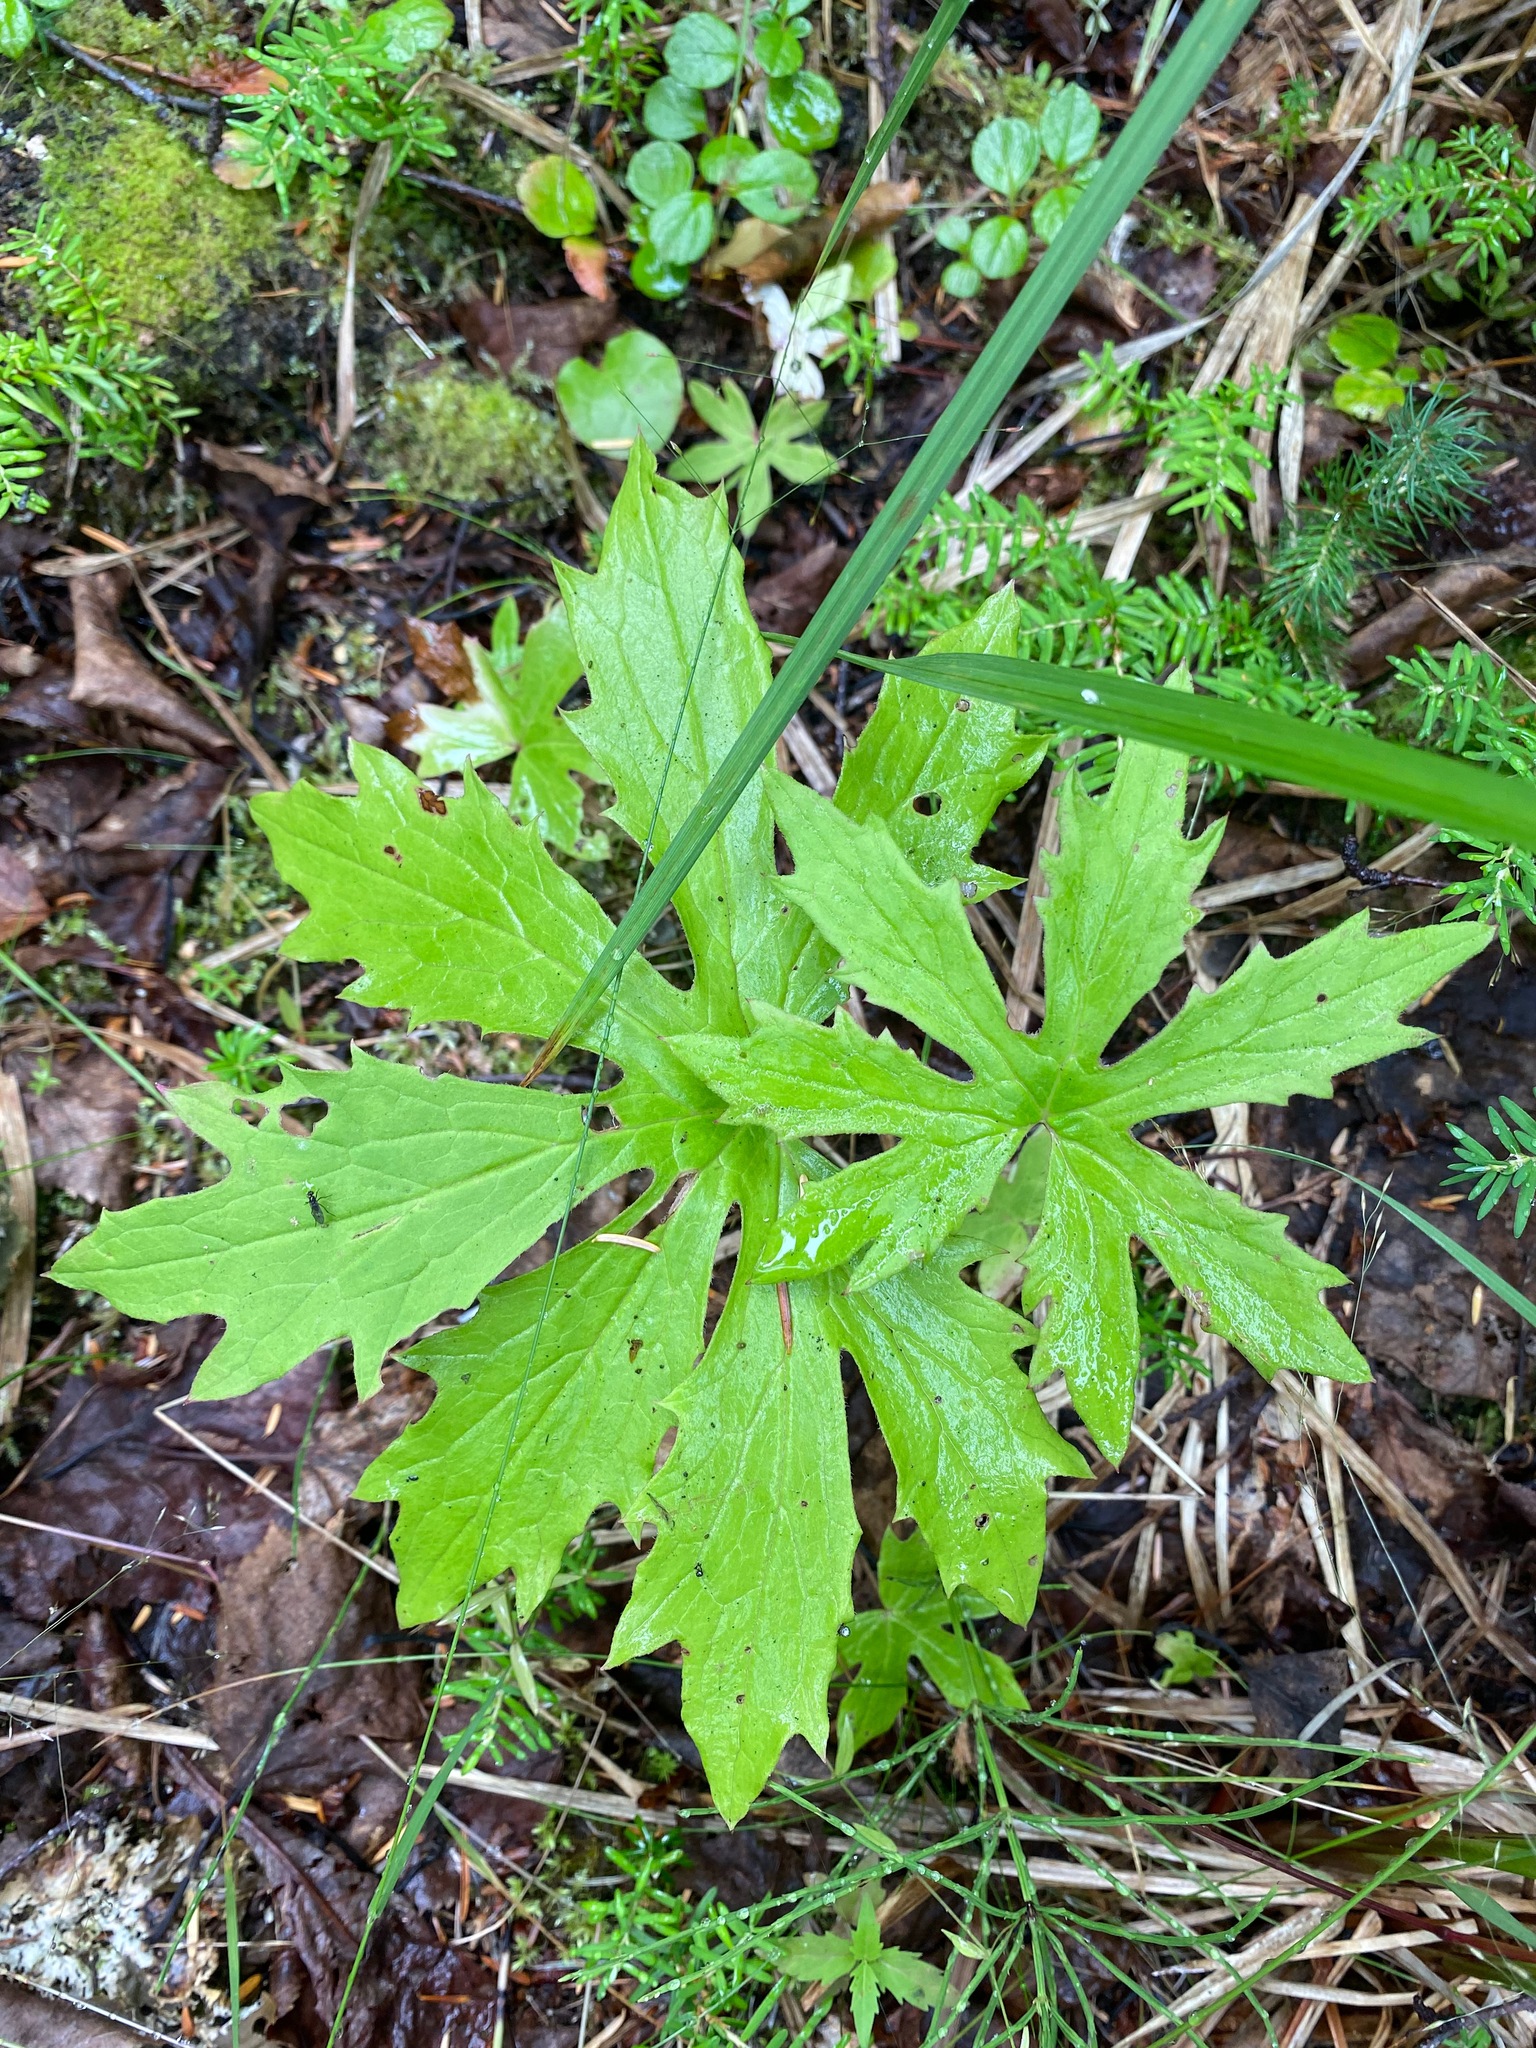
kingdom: Plantae
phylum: Tracheophyta
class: Magnoliopsida
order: Asterales
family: Asteraceae
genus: Petasites
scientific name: Petasites frigidus
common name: Arctic butterbur
